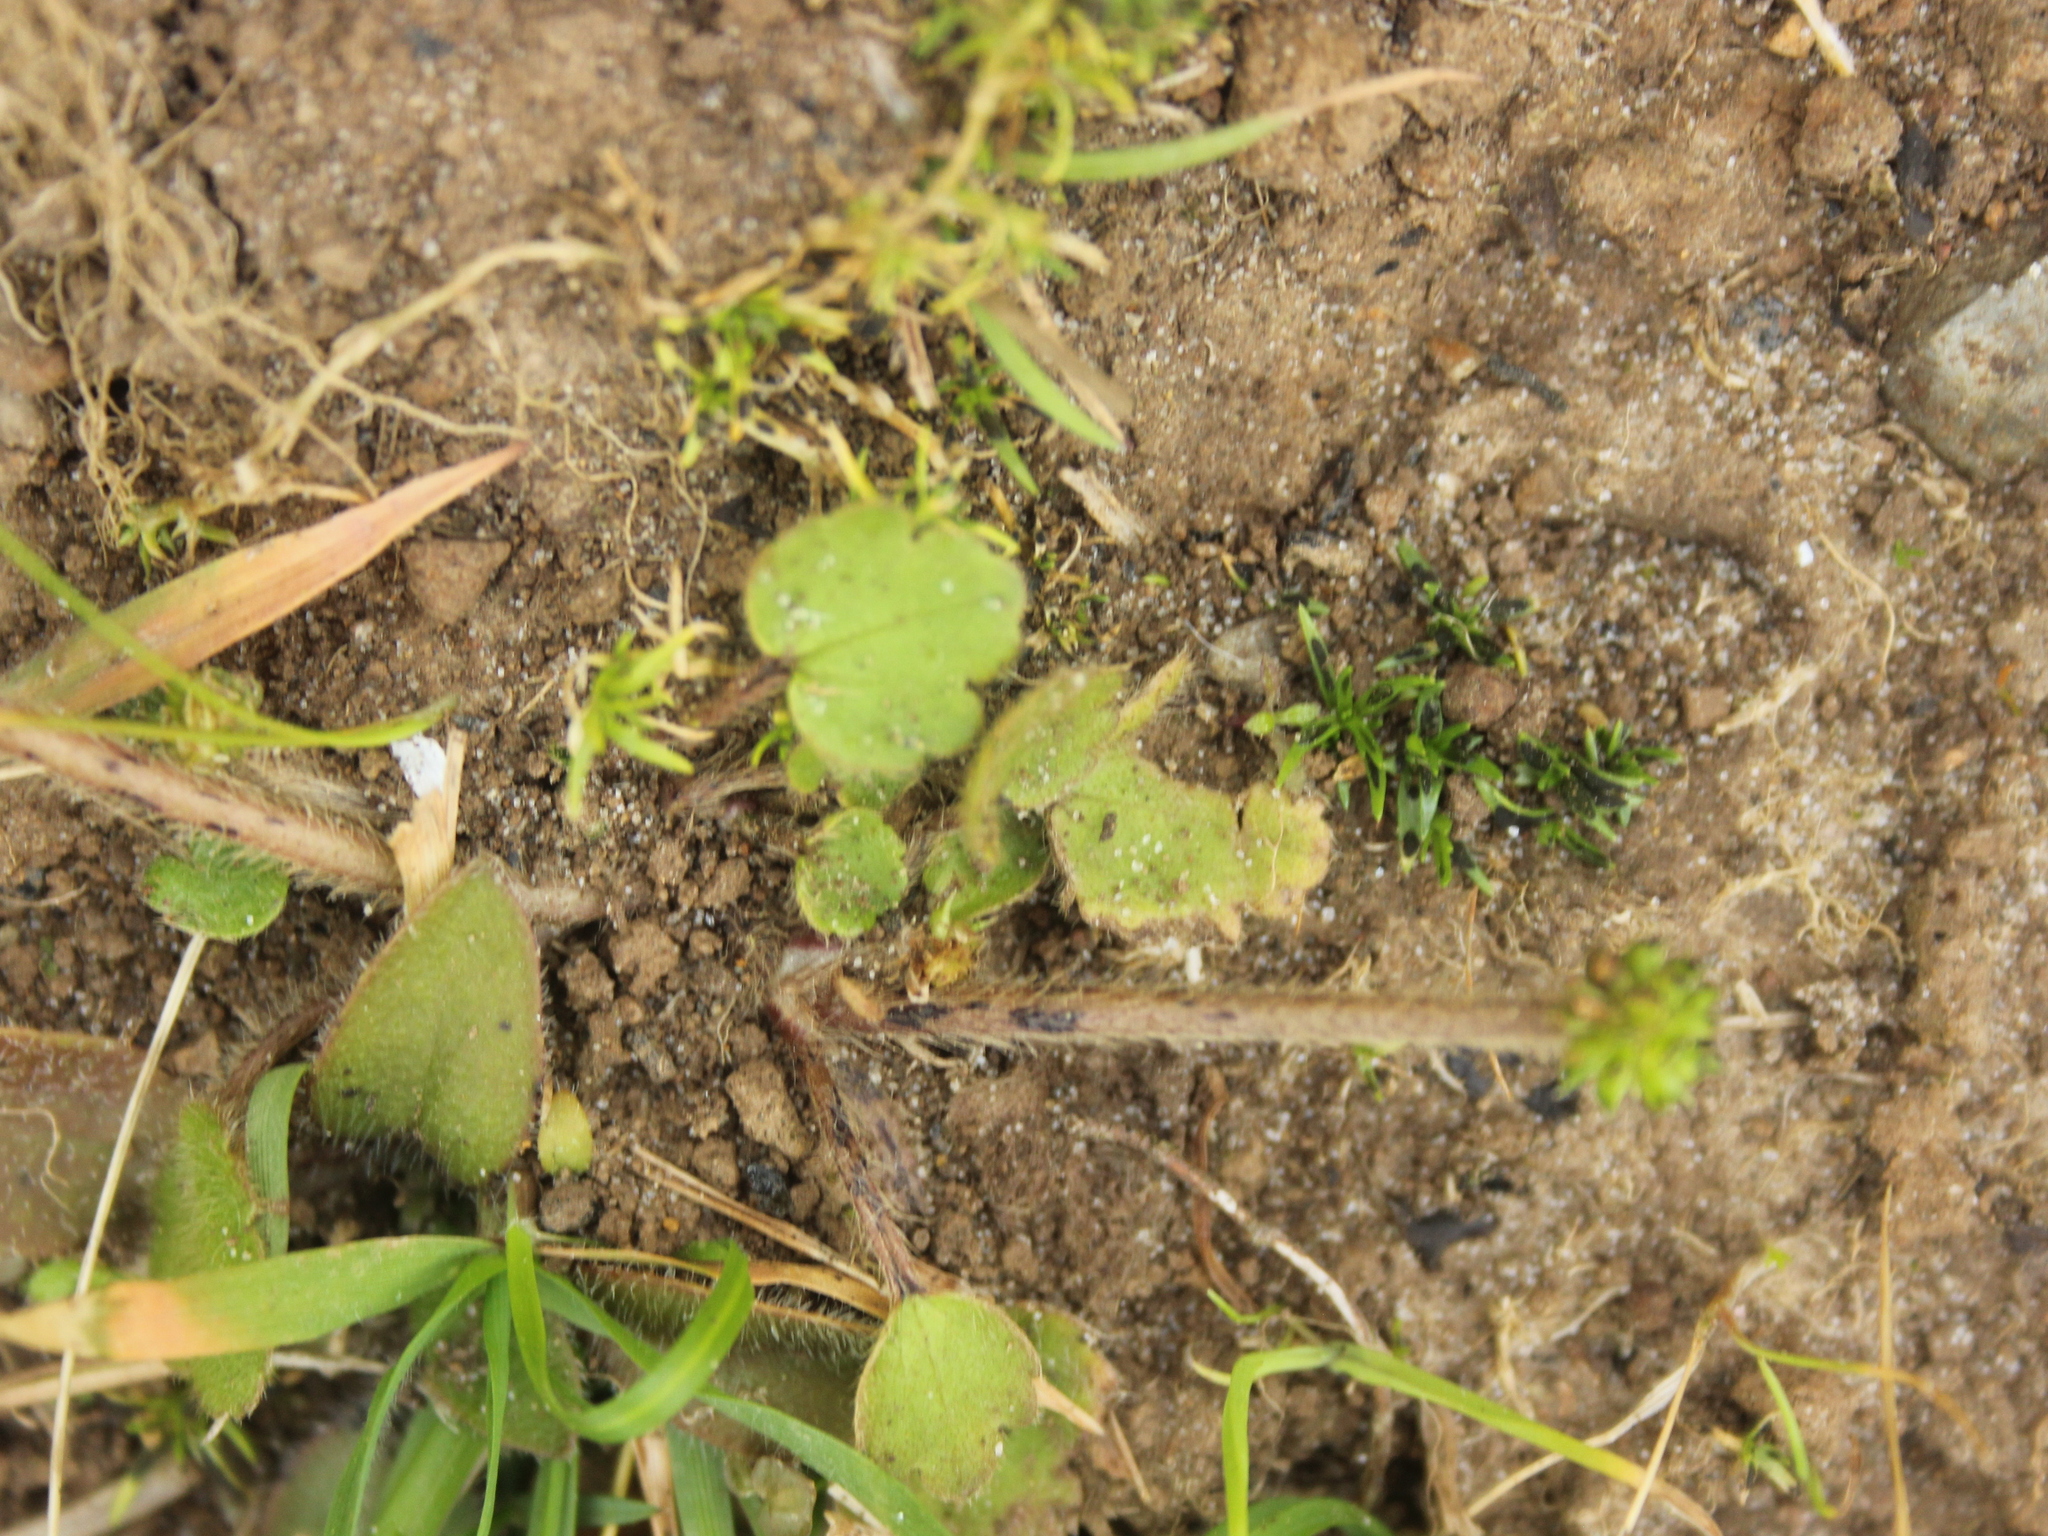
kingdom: Plantae
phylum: Tracheophyta
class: Magnoliopsida
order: Ranunculales
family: Ranunculaceae
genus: Ranunculus
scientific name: Ranunculus foliosus
